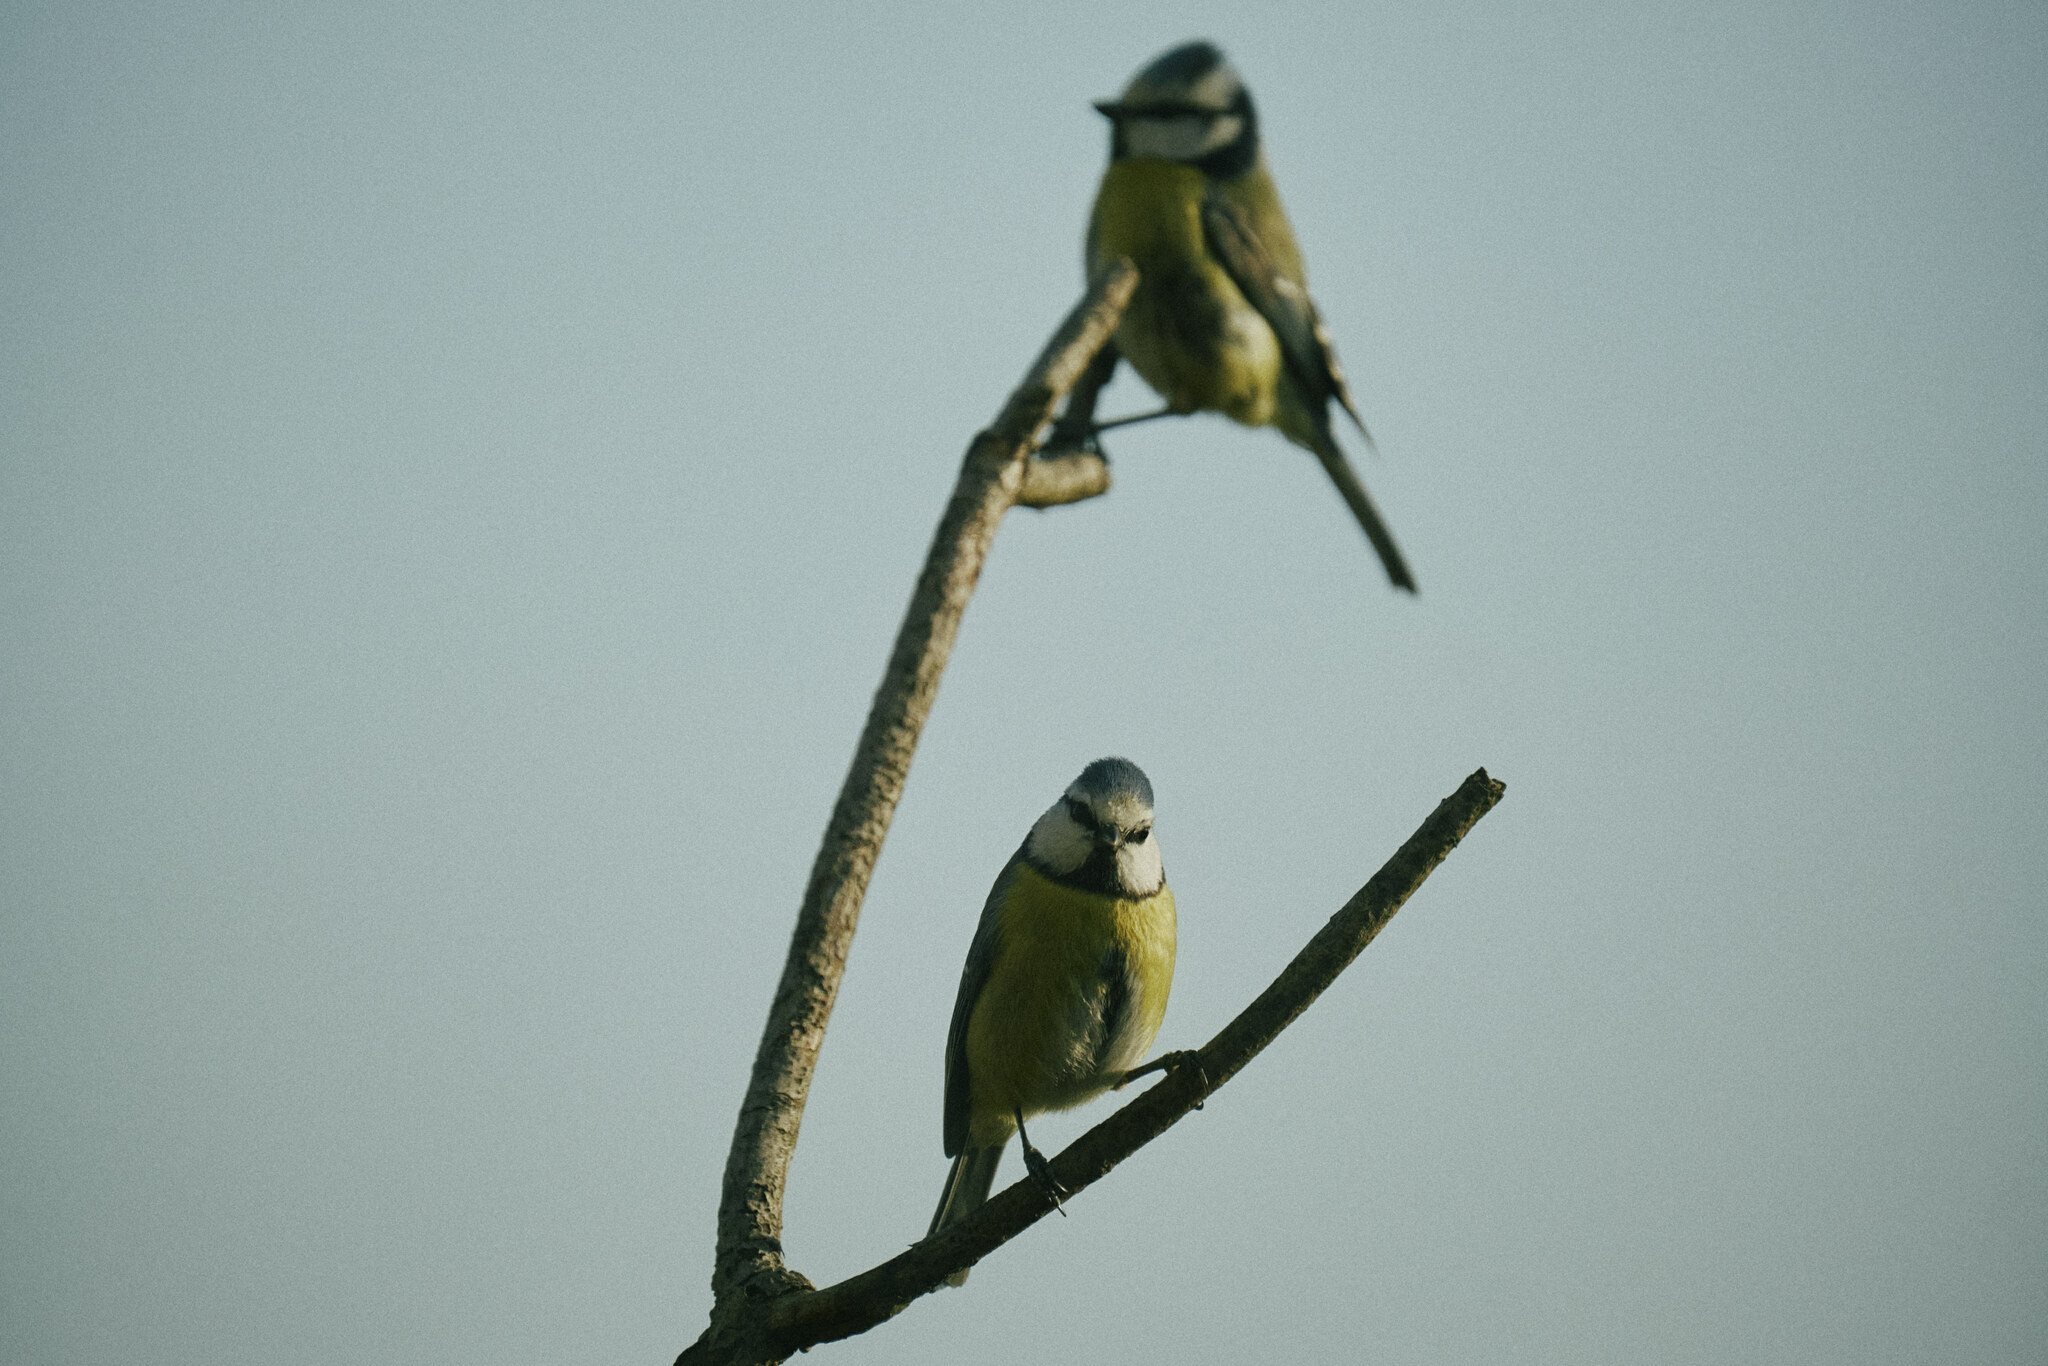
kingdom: Animalia
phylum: Chordata
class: Aves
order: Passeriformes
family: Paridae
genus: Cyanistes
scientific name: Cyanistes caeruleus
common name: Eurasian blue tit
